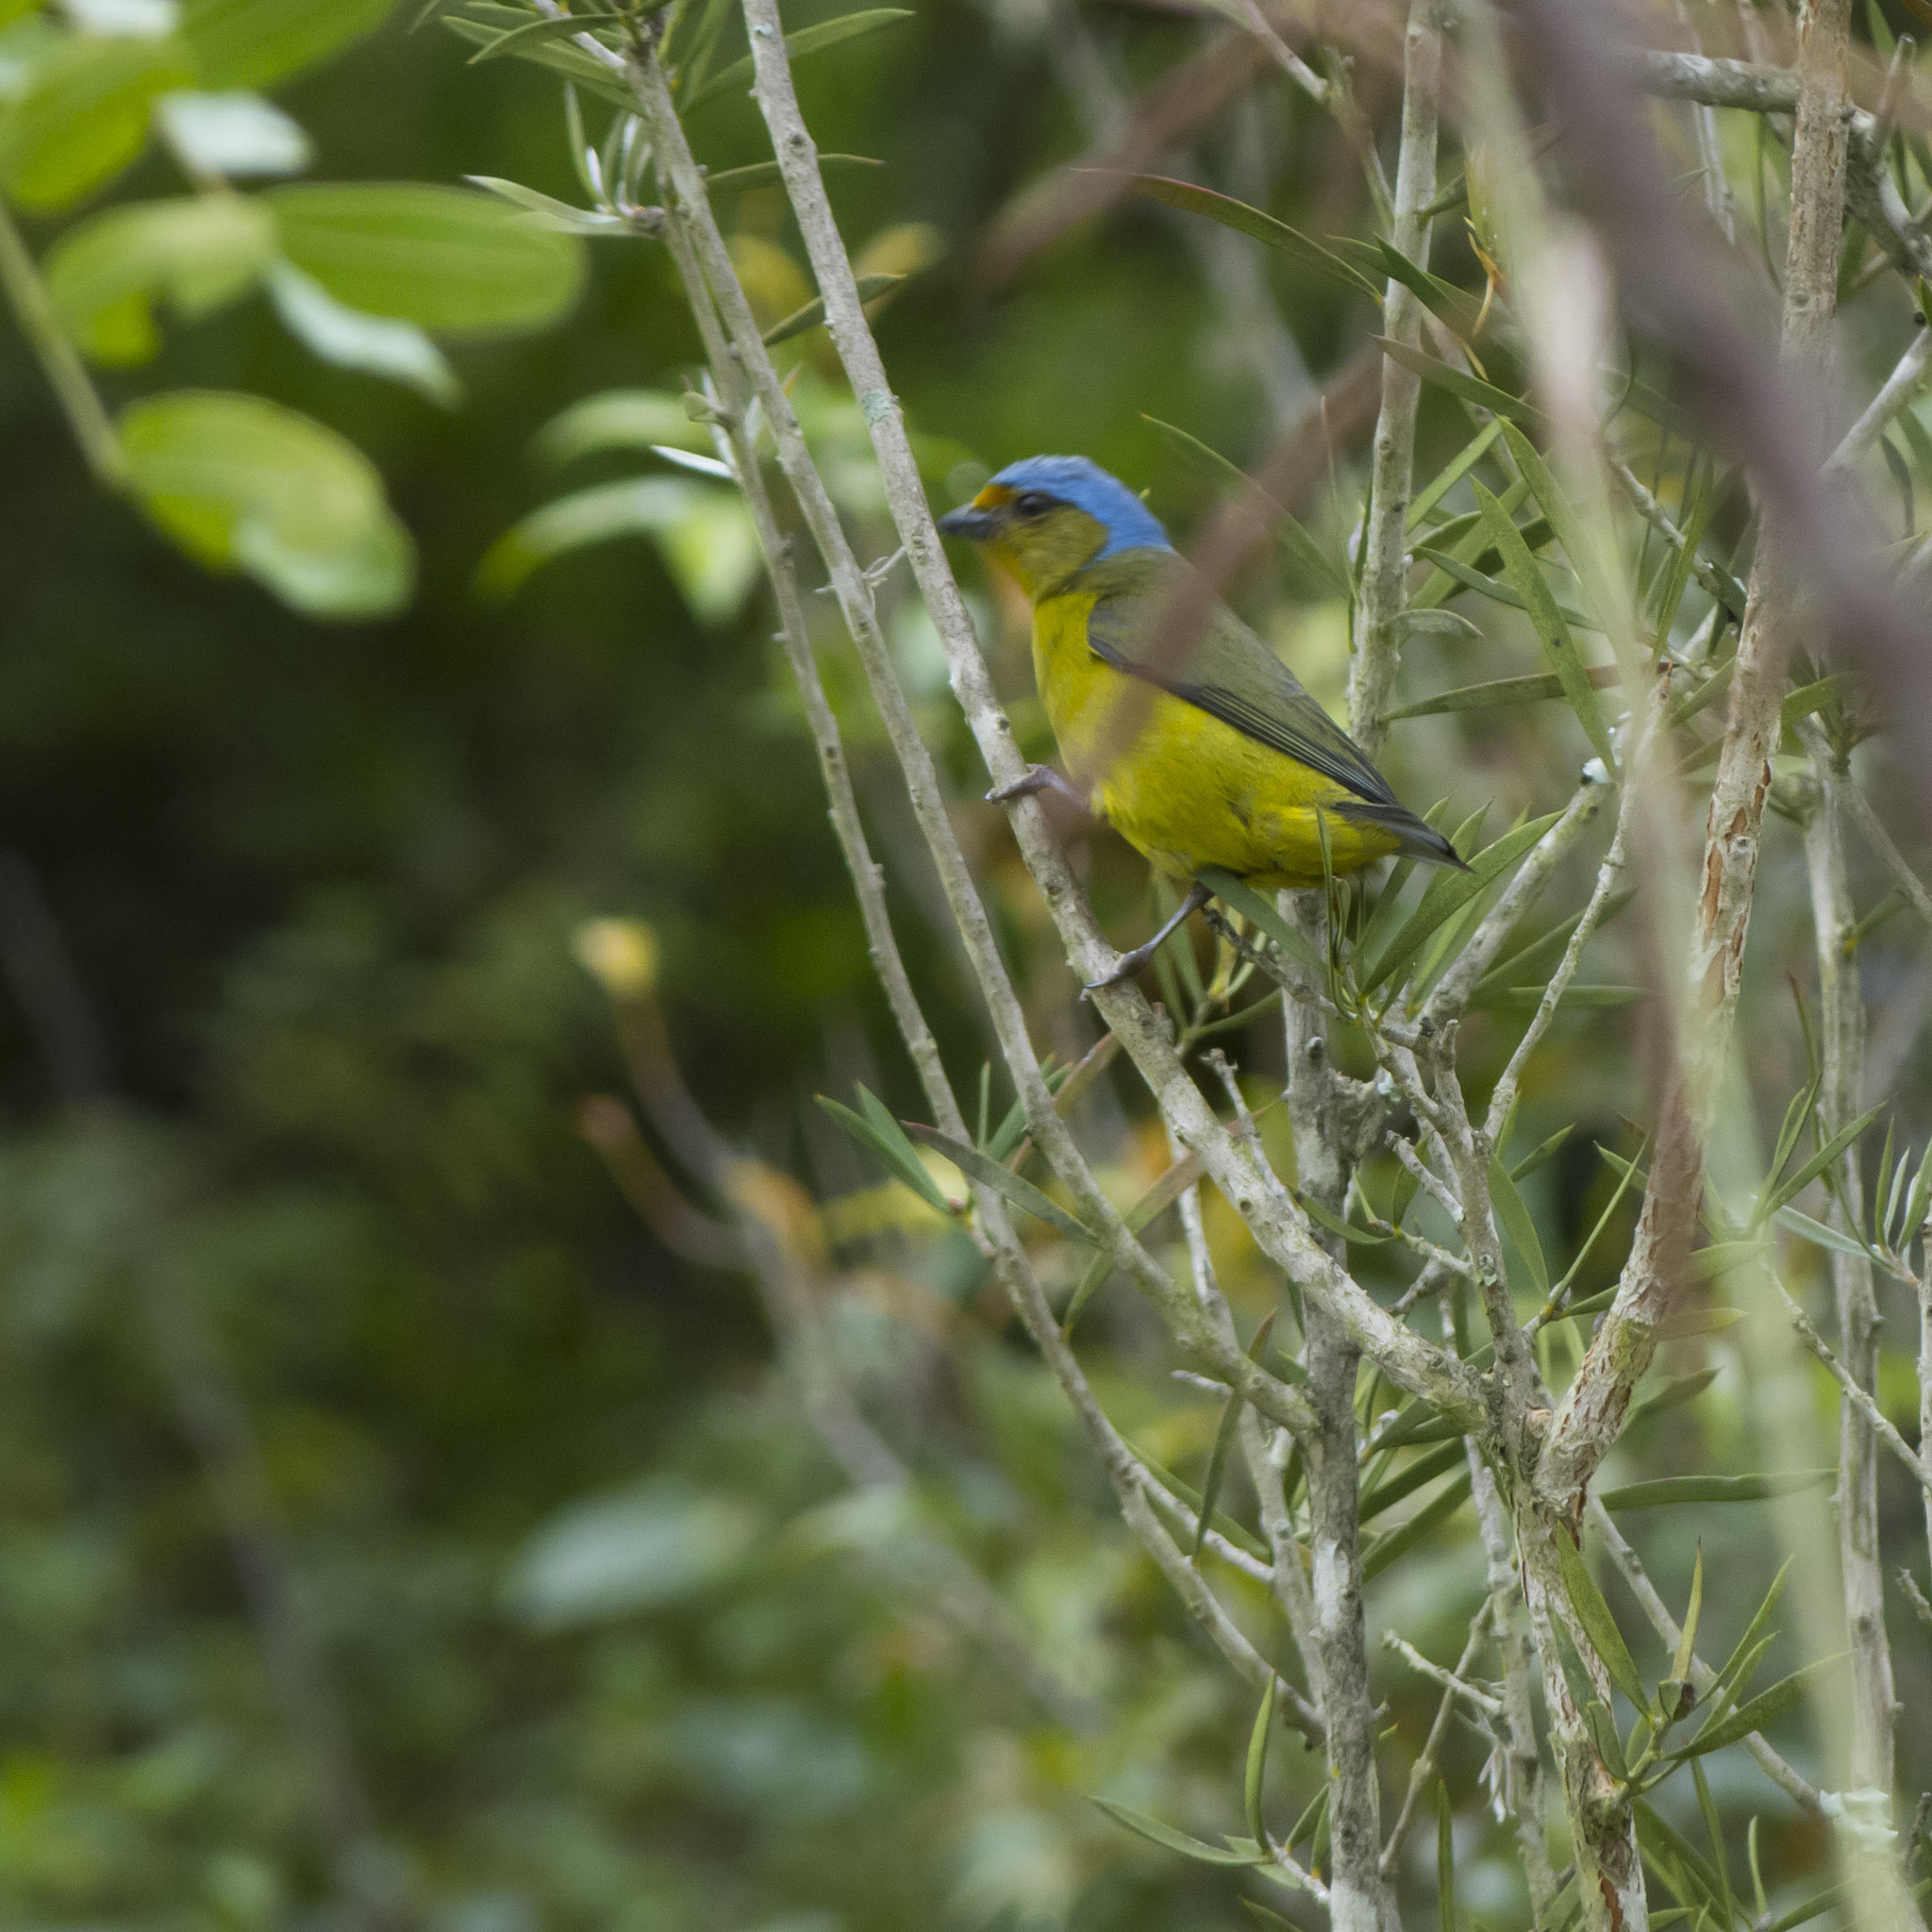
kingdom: Animalia
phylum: Chordata
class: Aves
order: Passeriformes
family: Fringillidae
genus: Euphonia
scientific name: Euphonia cyanocephala
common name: Golden-rumped euphonia
